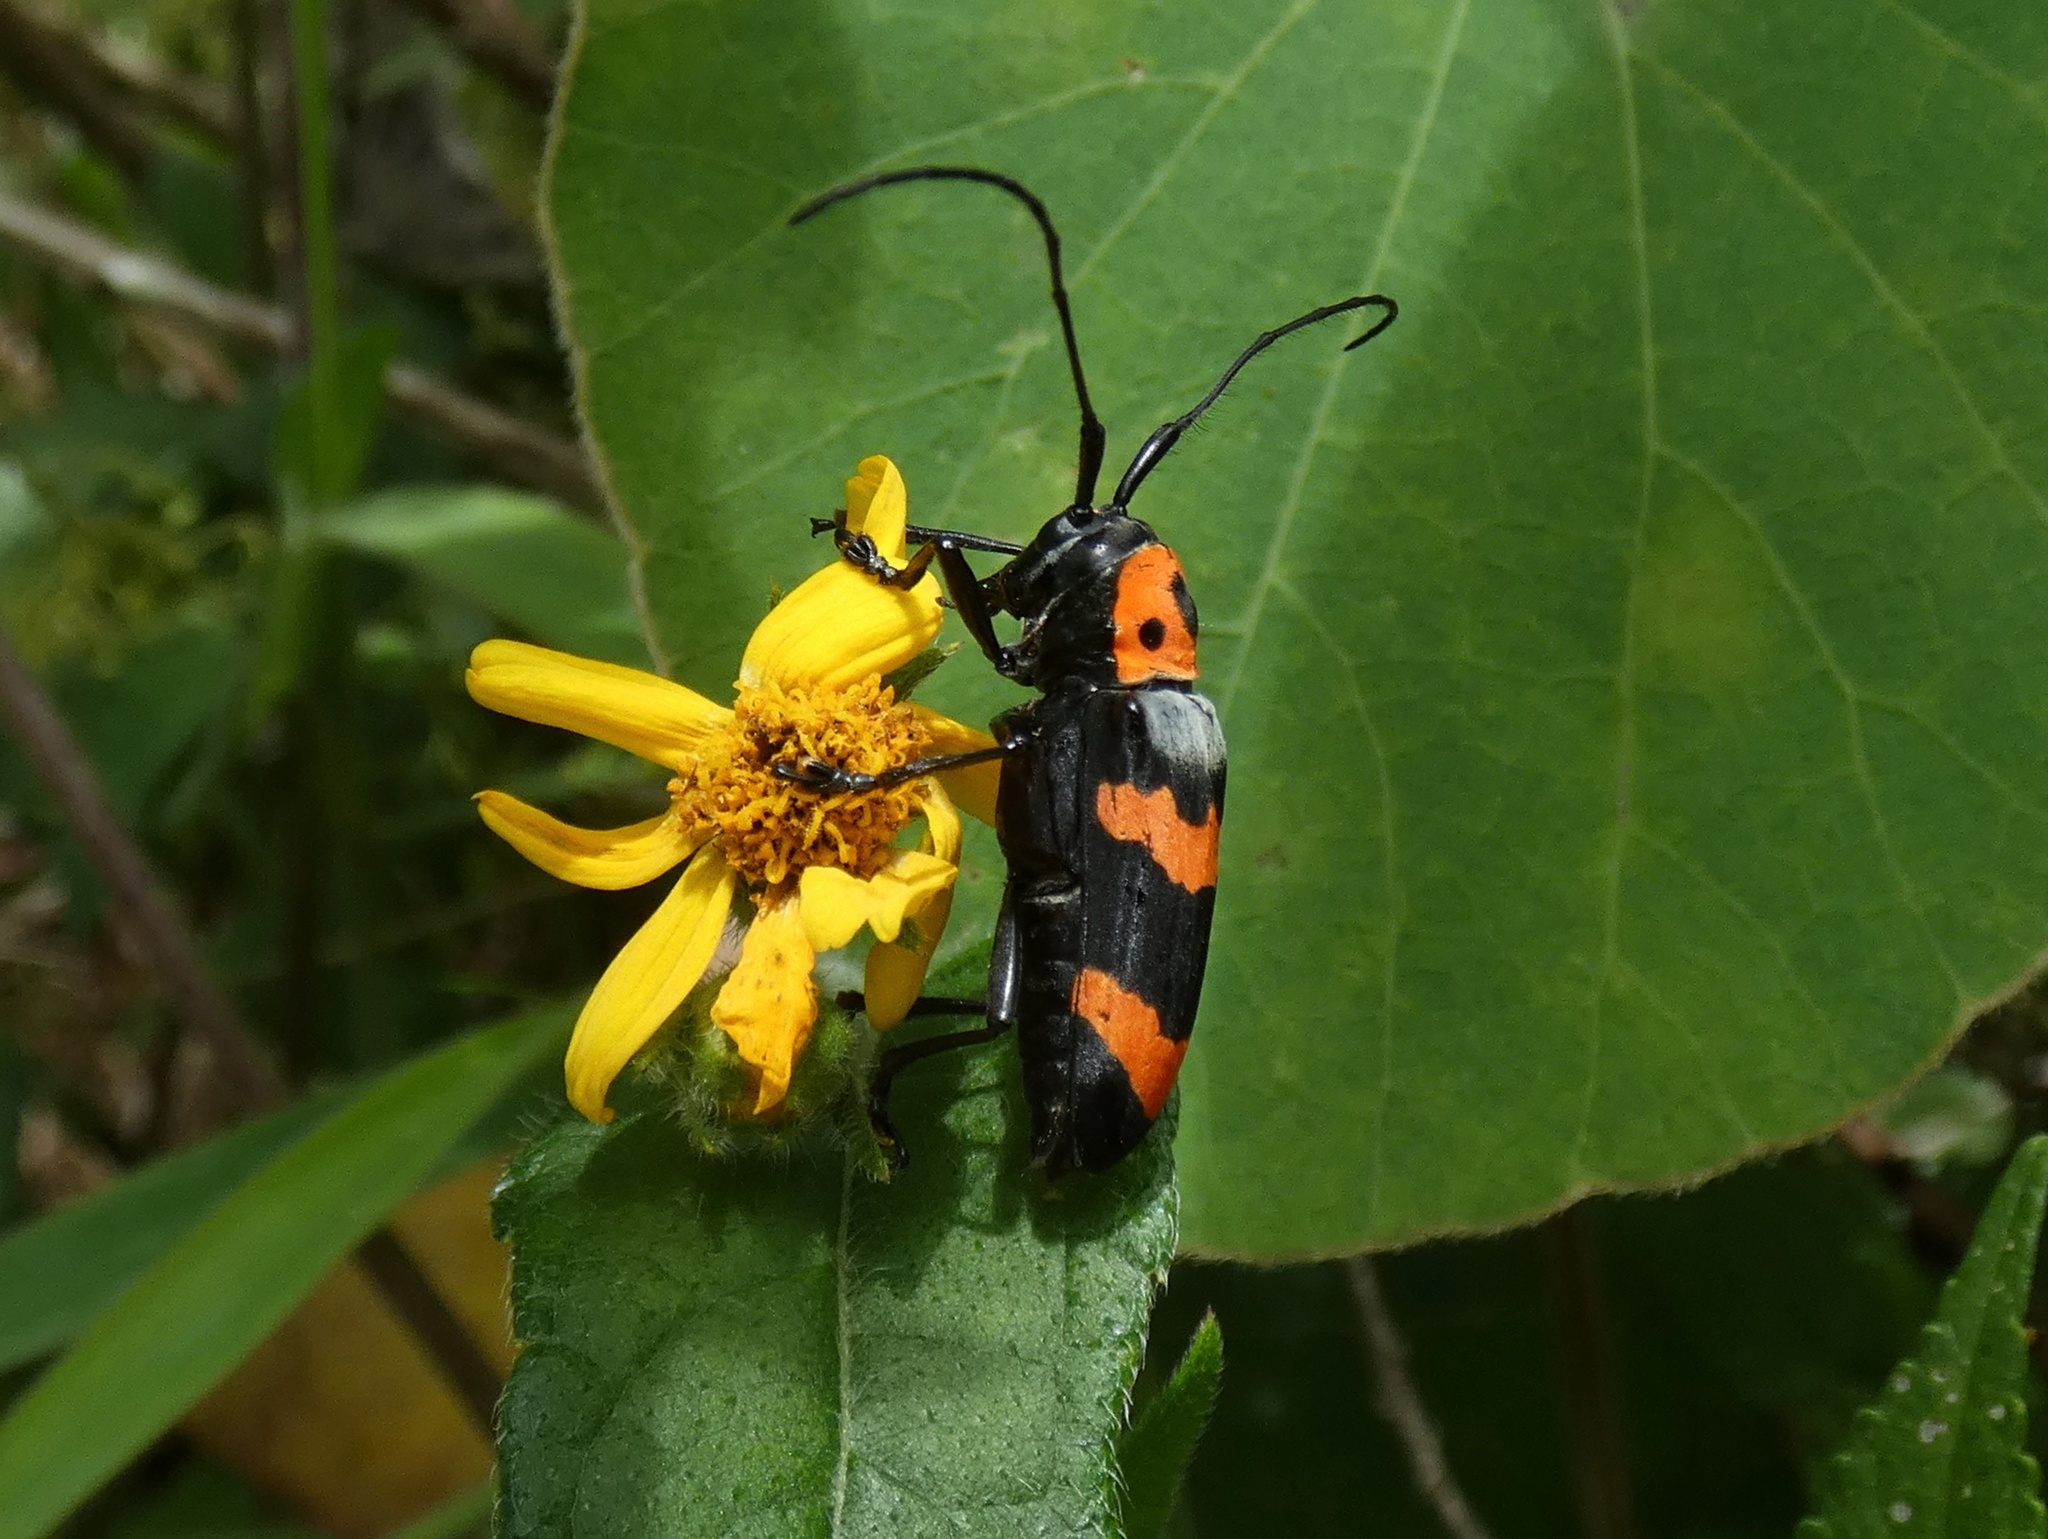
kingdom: Animalia
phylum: Arthropoda
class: Insecta
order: Coleoptera
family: Cerambycidae
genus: Oedudes
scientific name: Oedudes spectabilis
